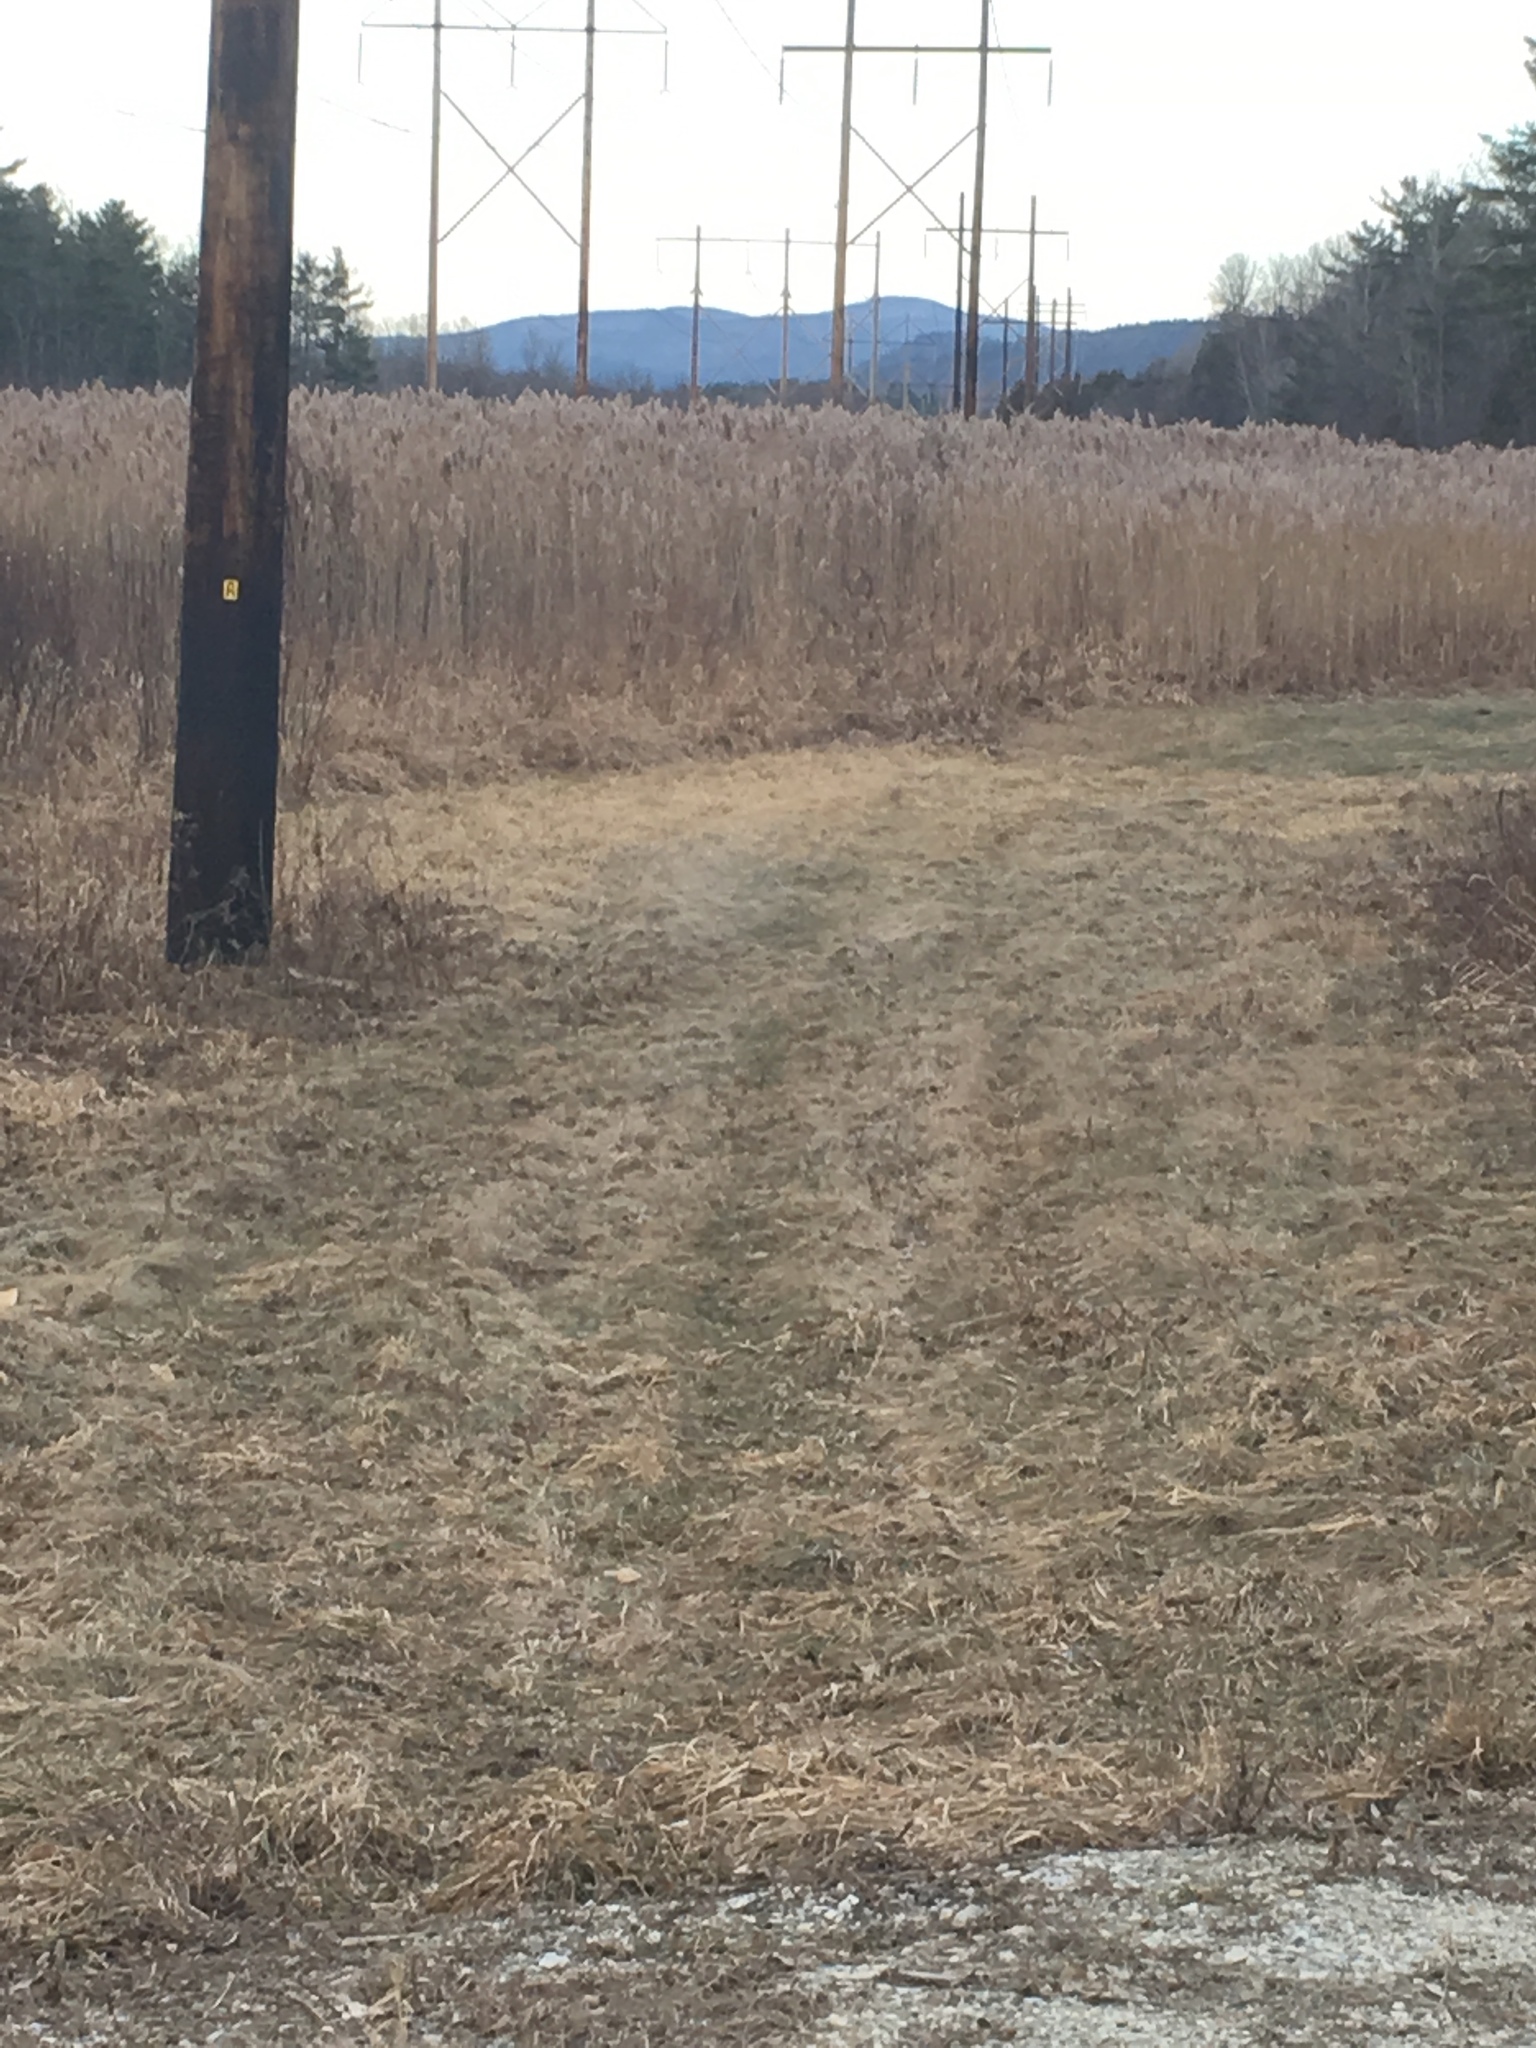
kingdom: Plantae
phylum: Tracheophyta
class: Liliopsida
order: Poales
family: Poaceae
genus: Phragmites
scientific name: Phragmites australis
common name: Common reed
